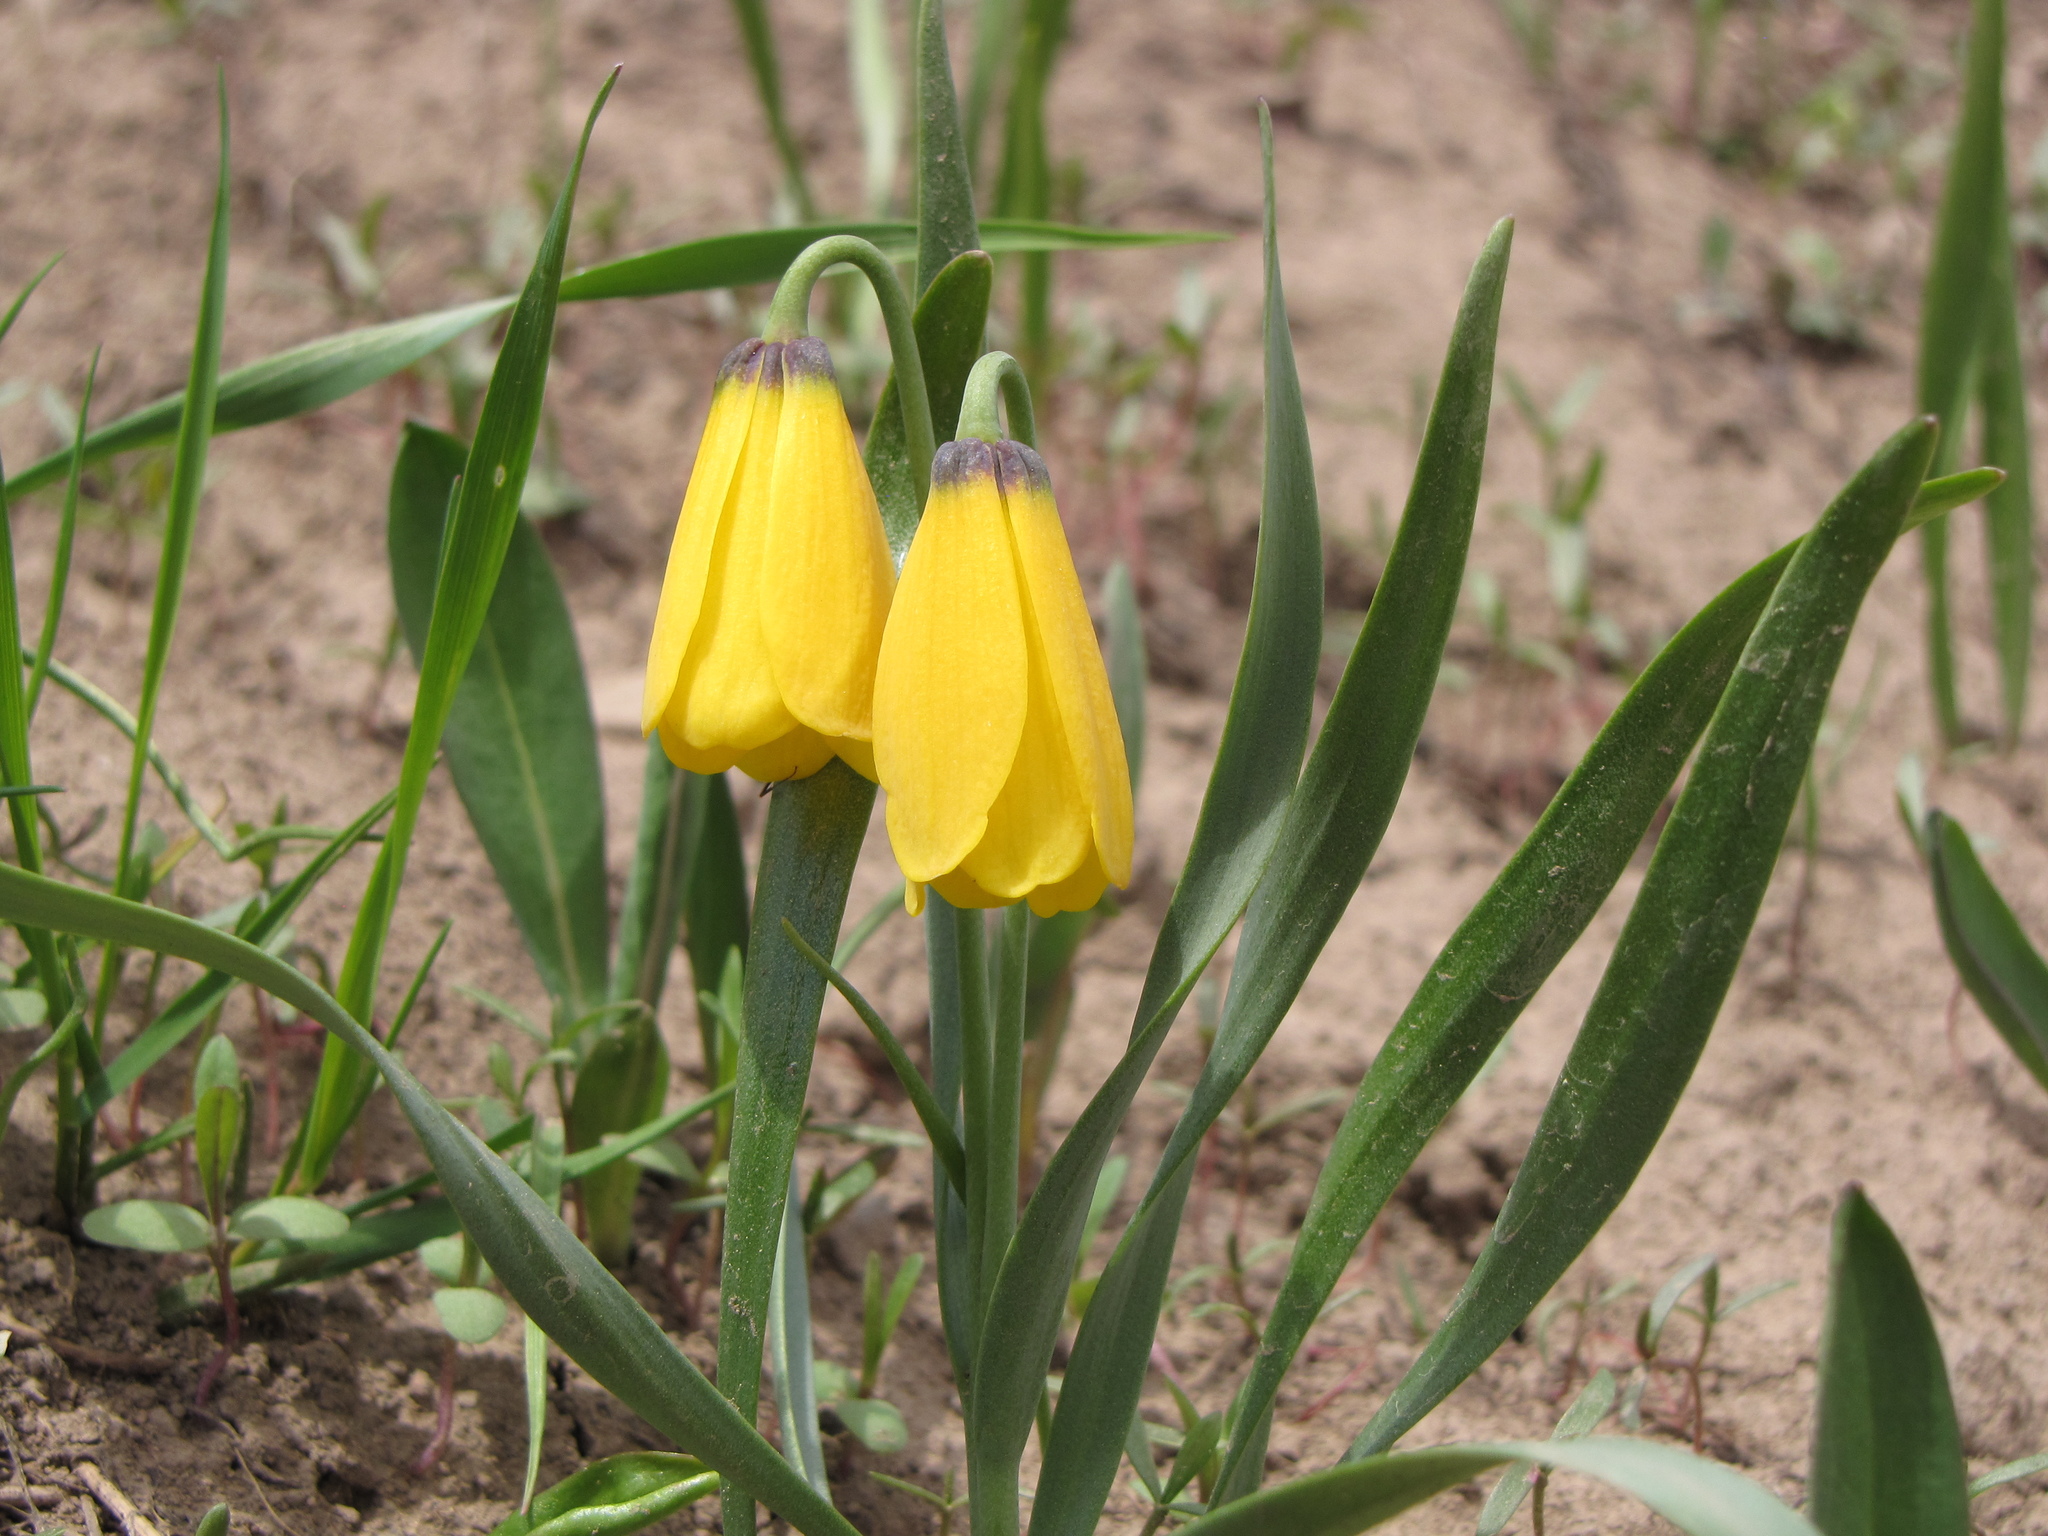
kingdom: Plantae
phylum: Tracheophyta
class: Liliopsida
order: Liliales
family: Liliaceae
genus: Fritillaria
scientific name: Fritillaria pudica
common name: Yellow fritillary
